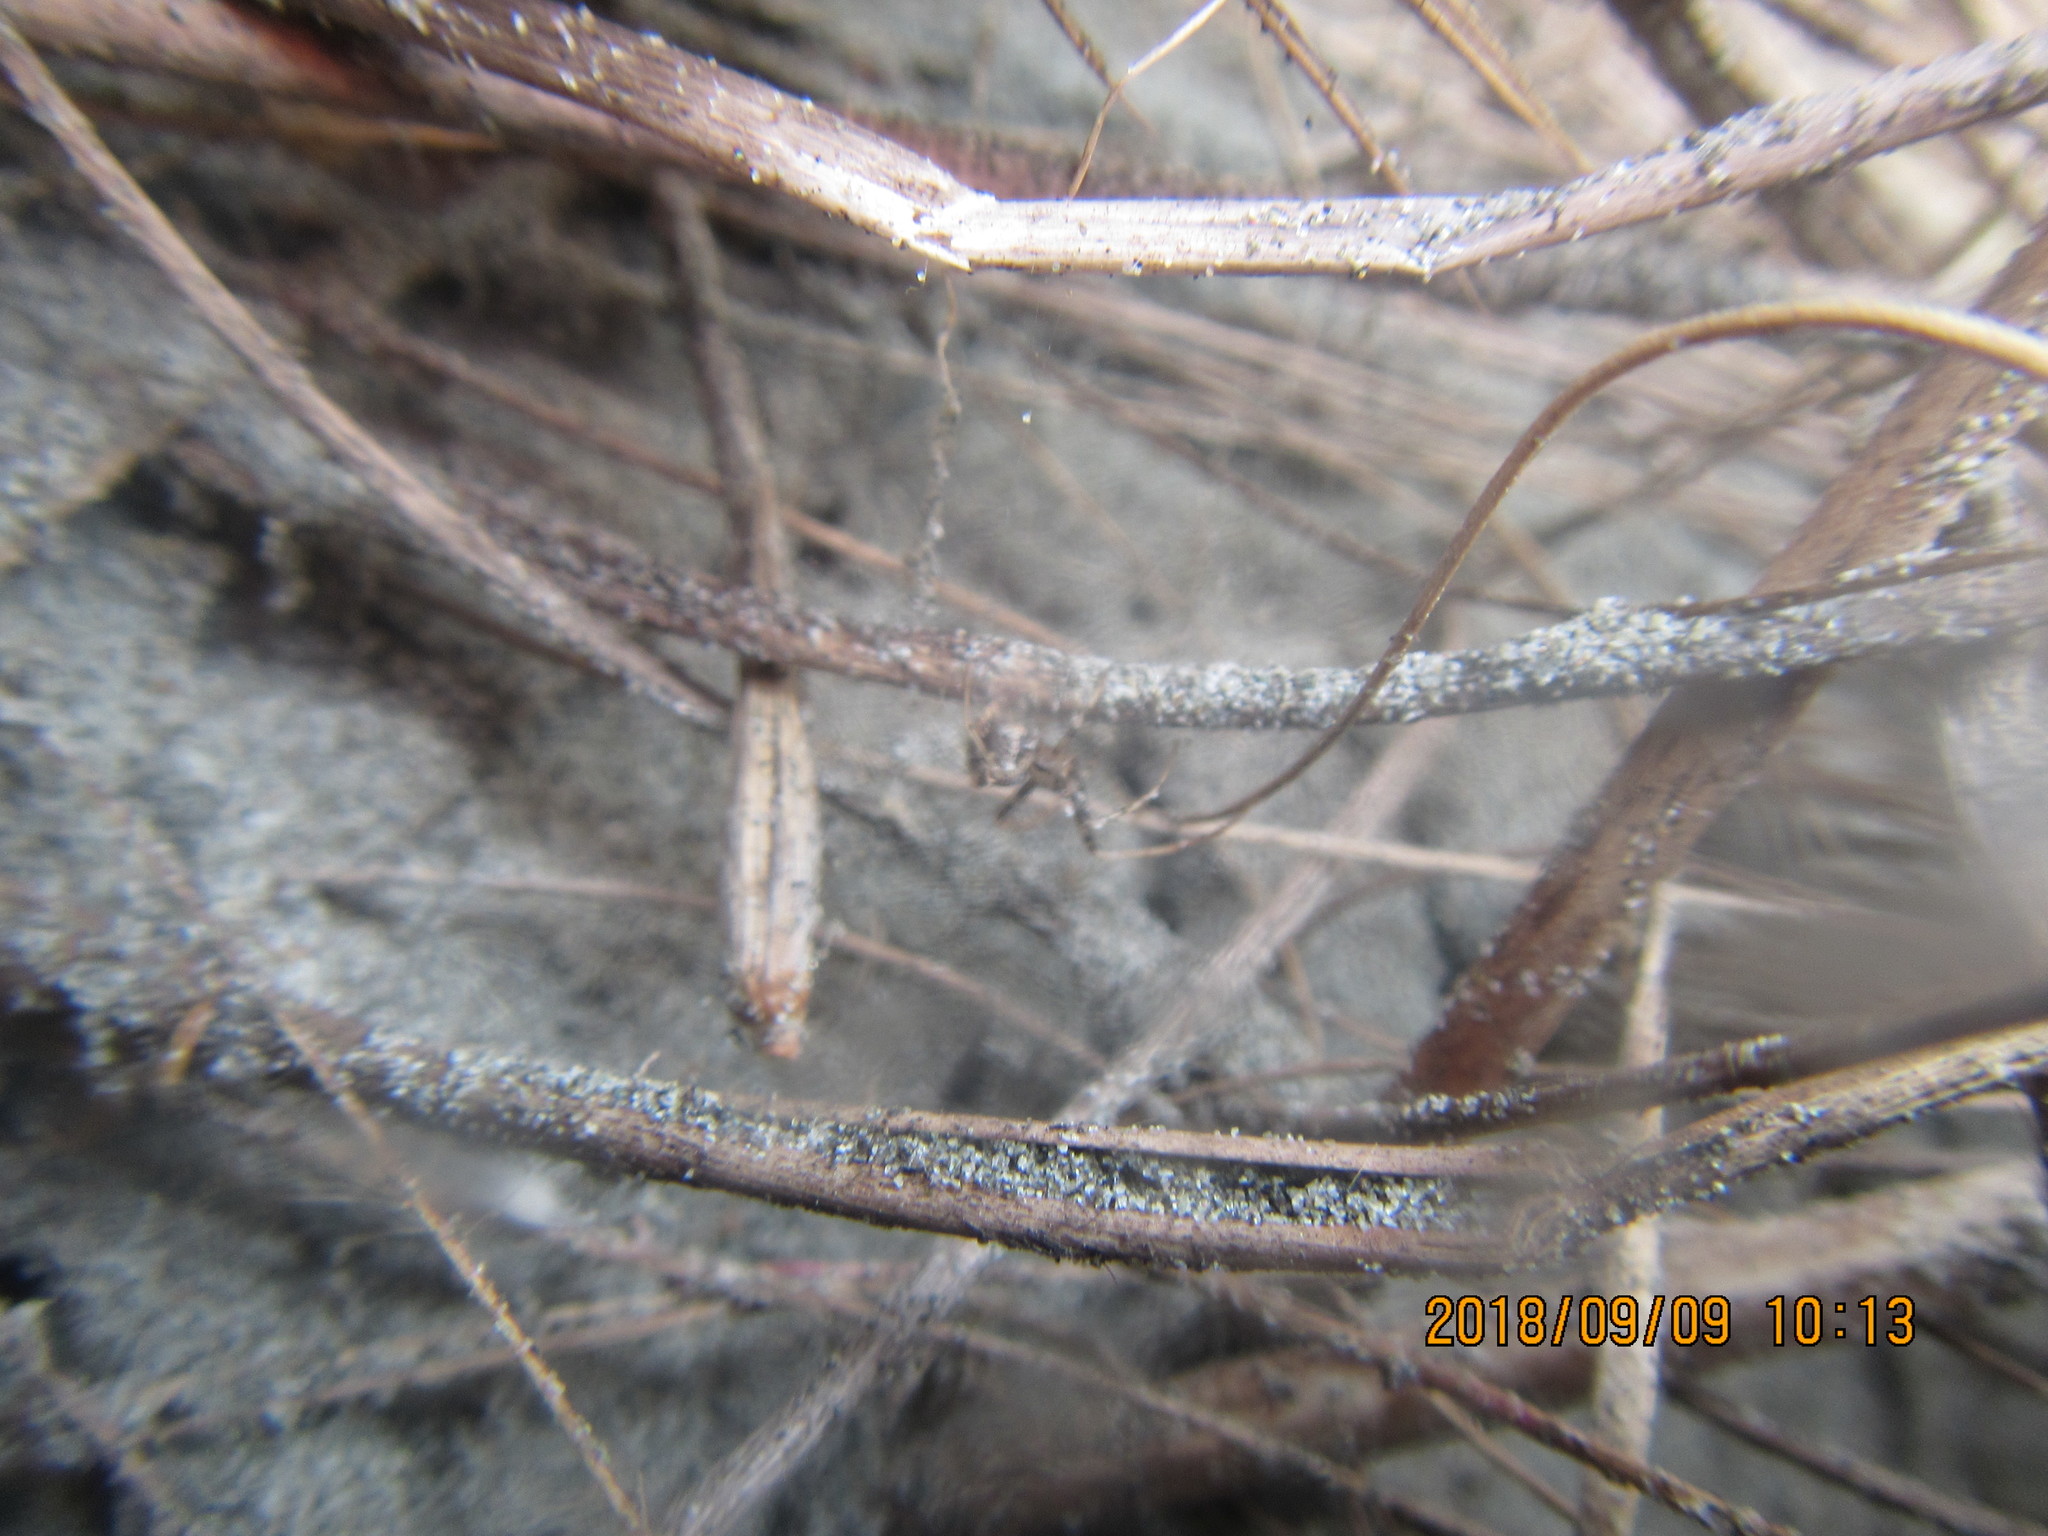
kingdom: Animalia
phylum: Arthropoda
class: Arachnida
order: Araneae
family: Mimetidae
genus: Australomimetus
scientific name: Australomimetus hartleyensis
